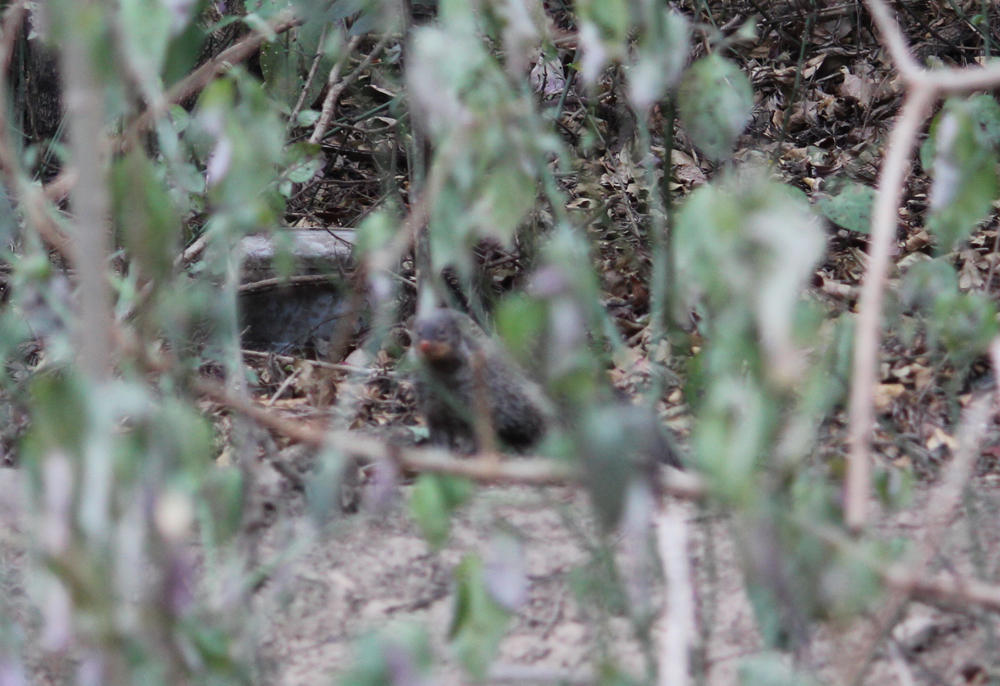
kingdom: Animalia
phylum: Chordata
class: Mammalia
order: Carnivora
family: Herpestidae
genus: Mungos
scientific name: Mungos mungo
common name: Banded mongoose
